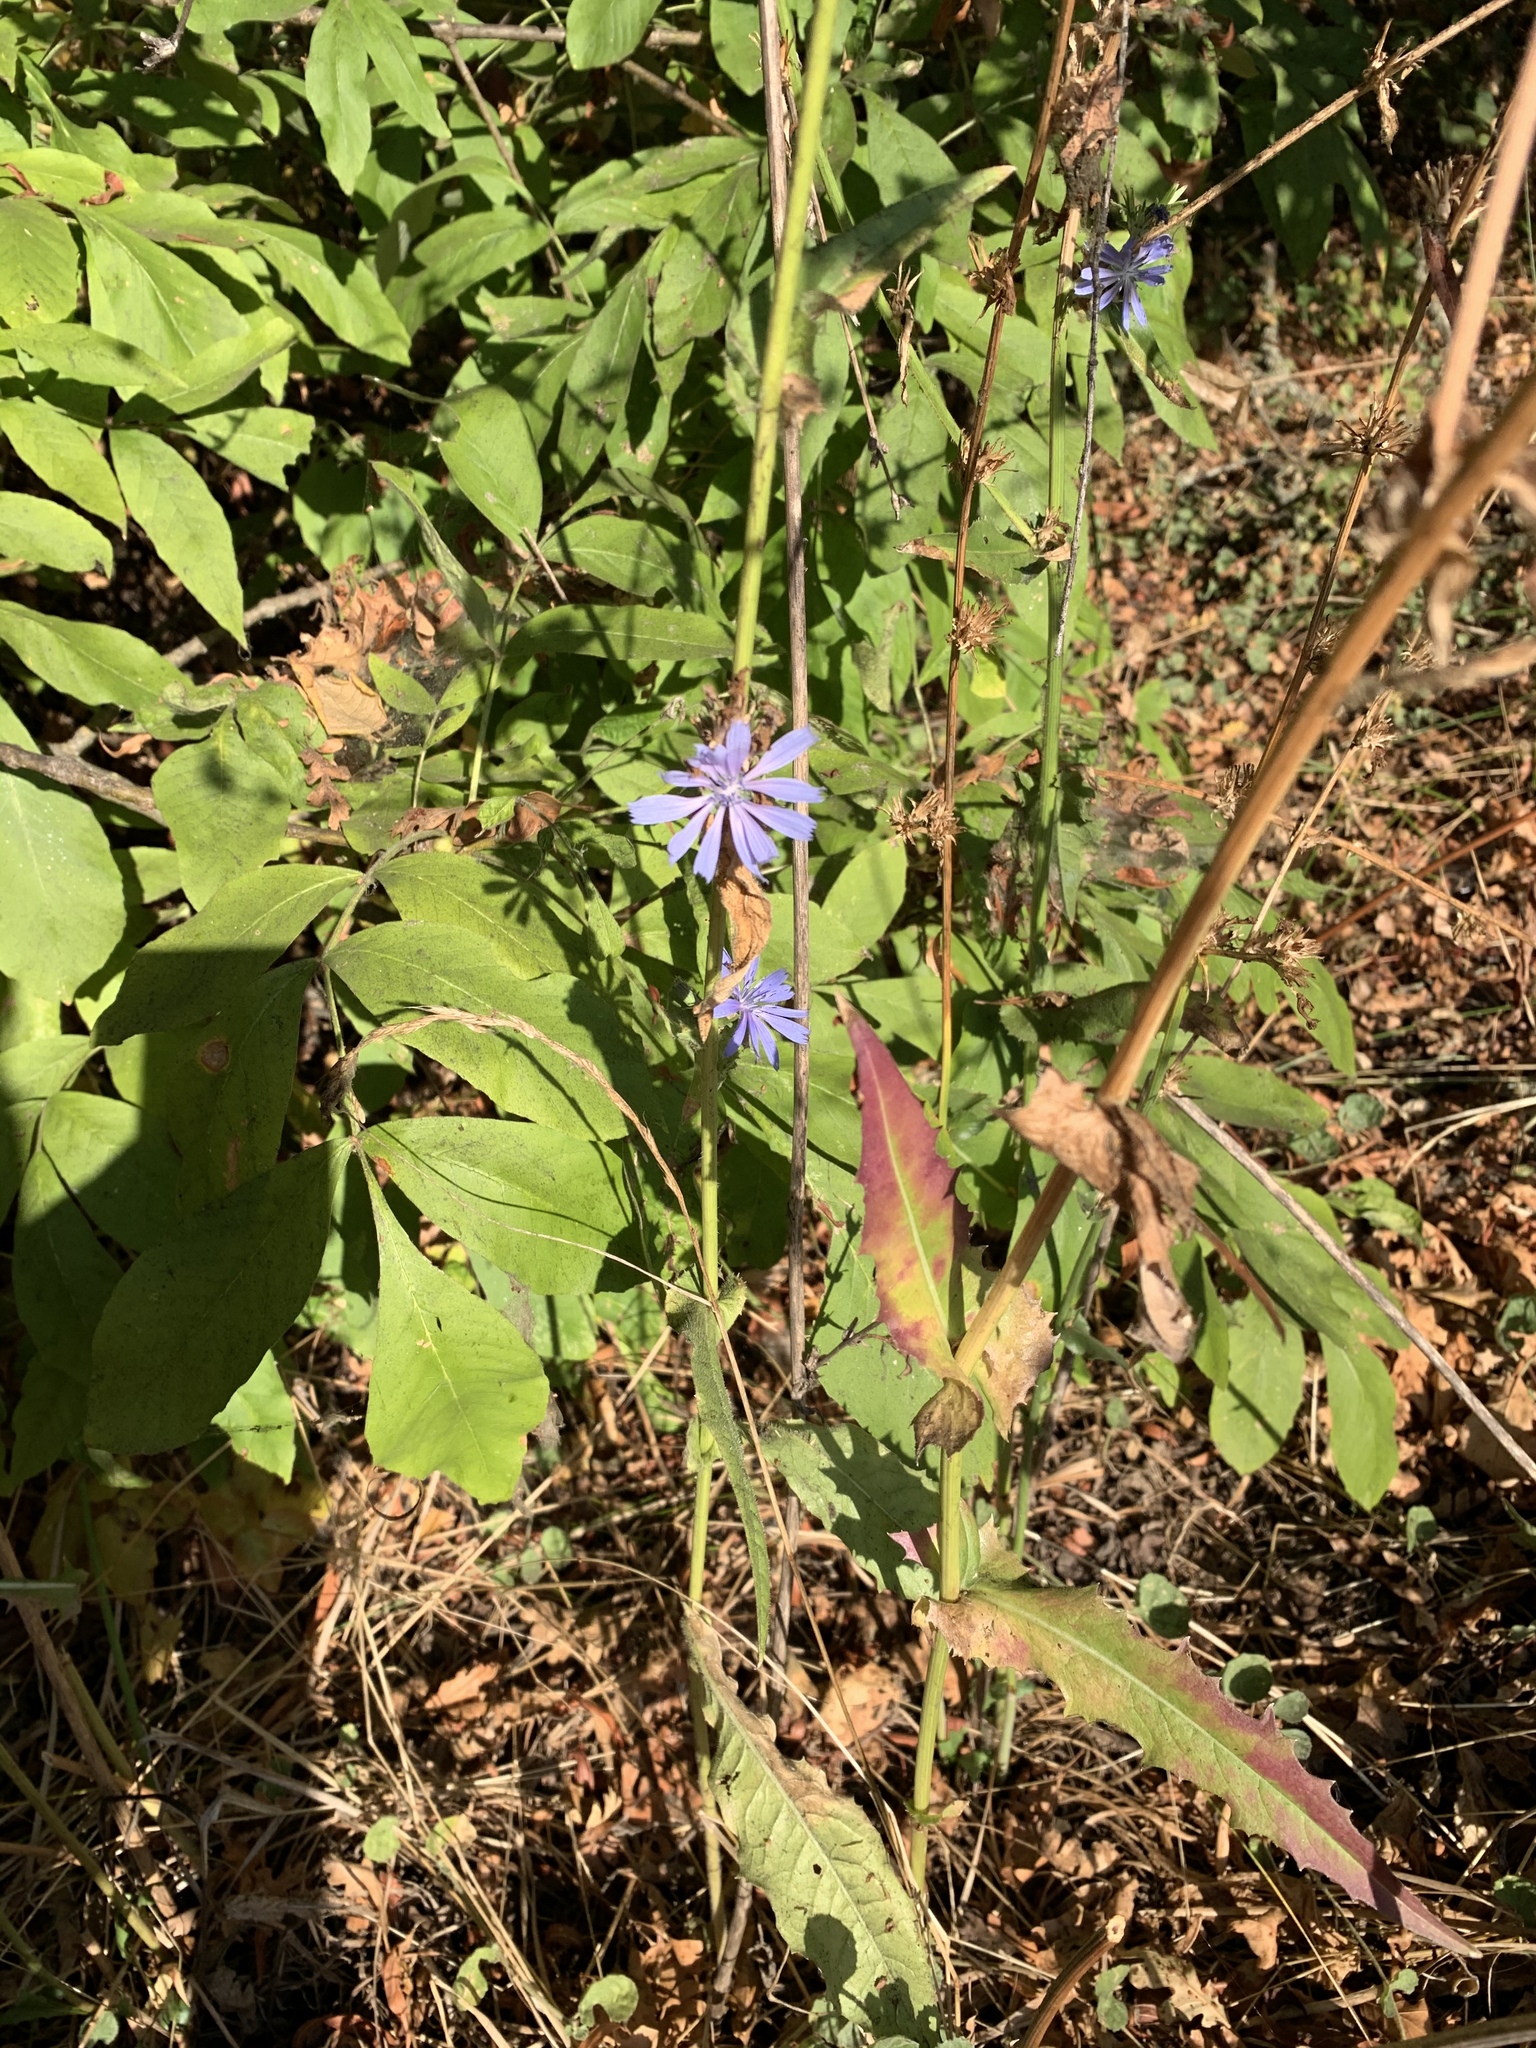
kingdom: Plantae
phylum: Tracheophyta
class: Magnoliopsida
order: Asterales
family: Asteraceae
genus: Cichorium
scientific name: Cichorium intybus
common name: Chicory
